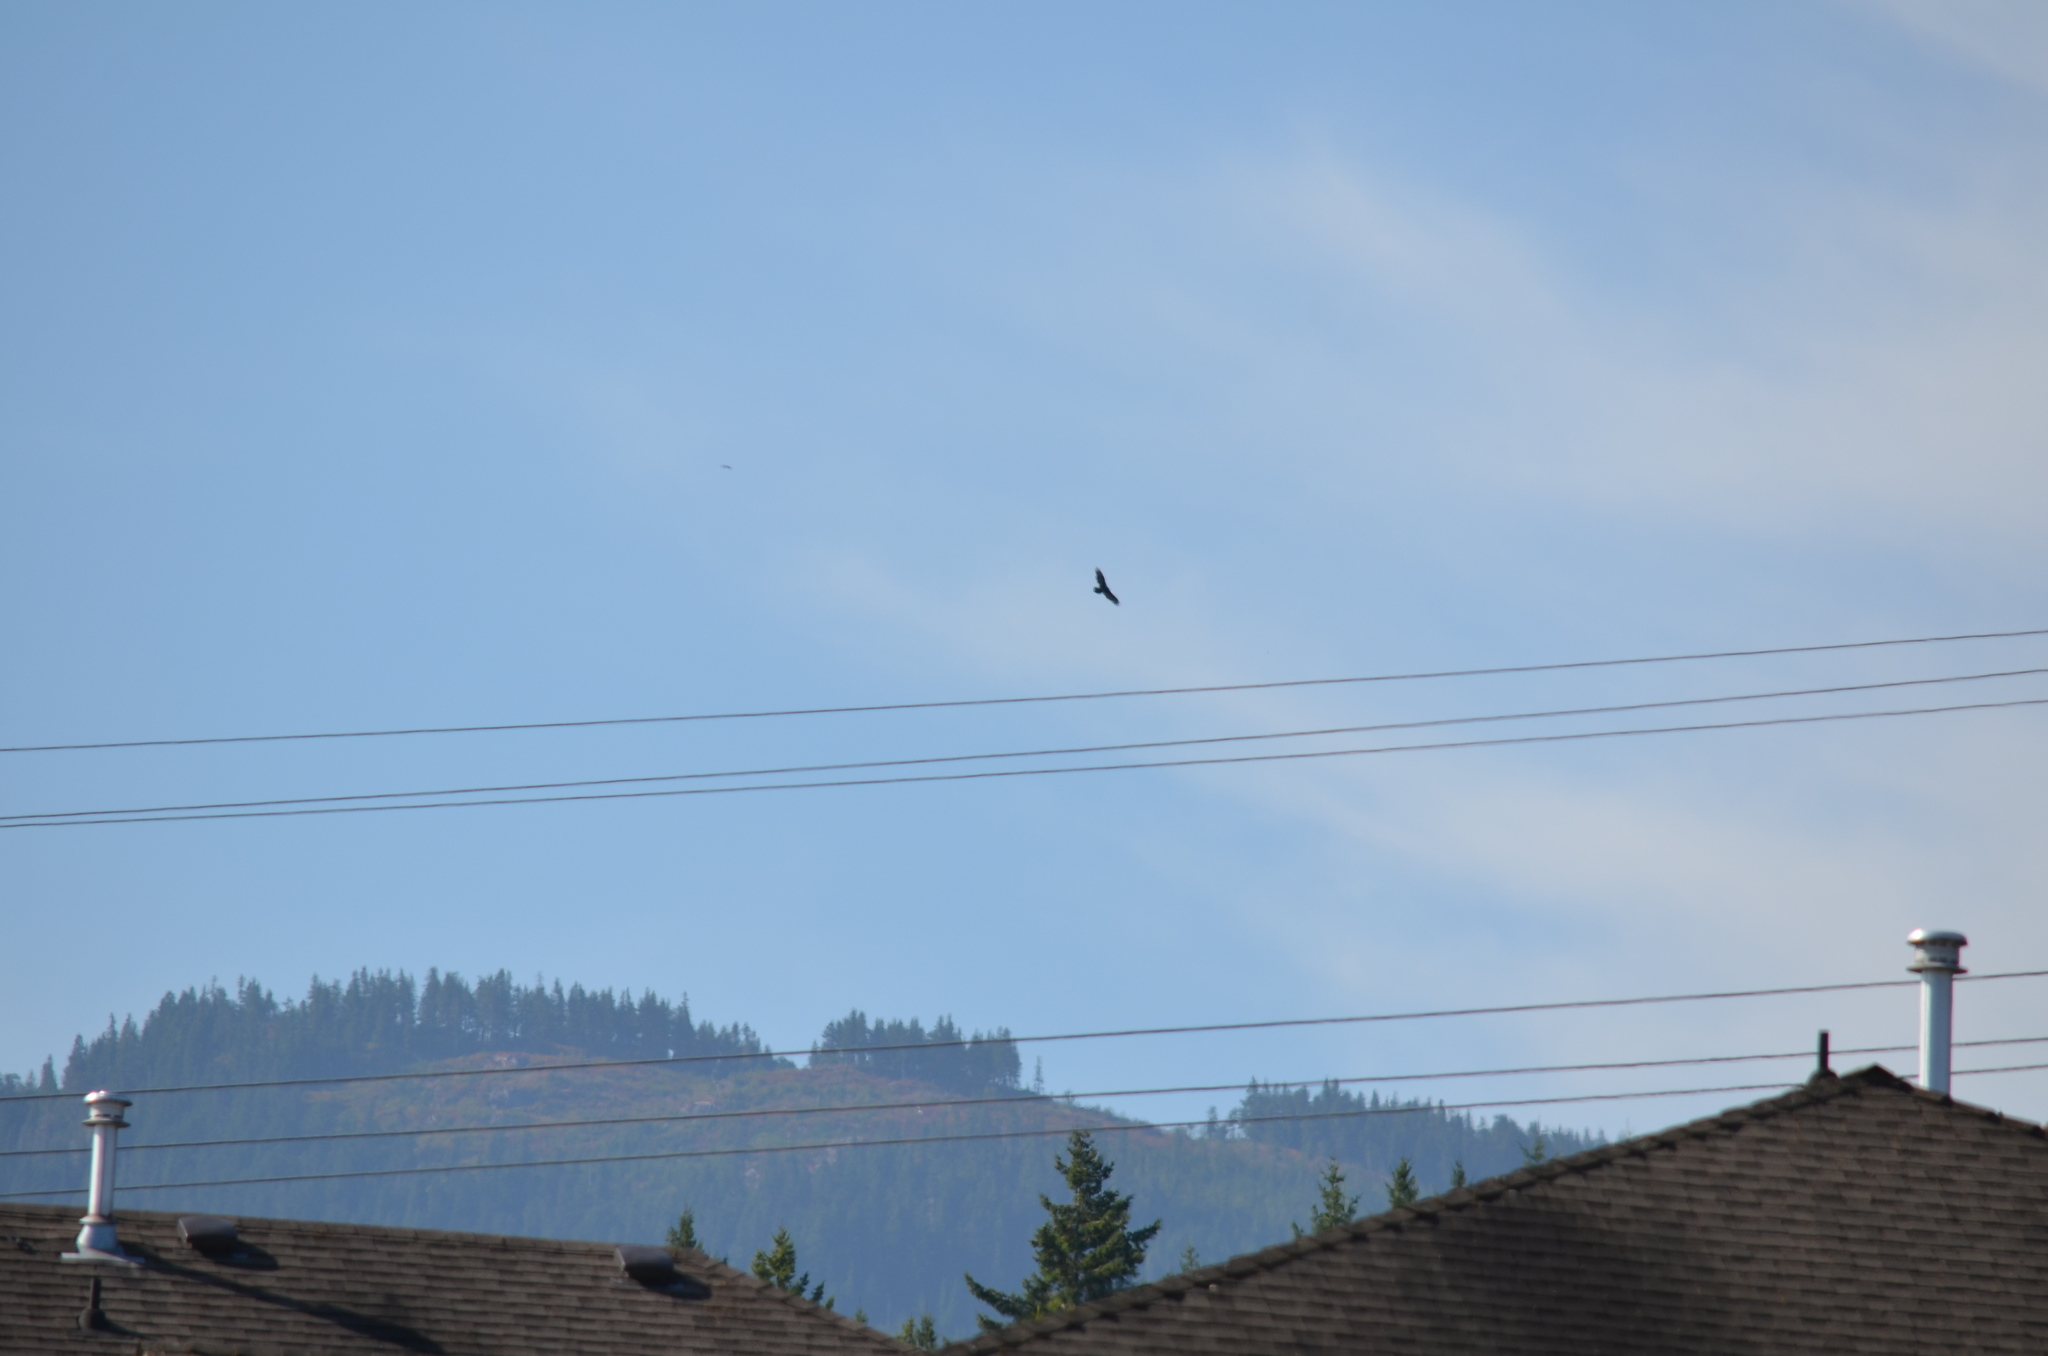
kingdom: Animalia
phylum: Chordata
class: Aves
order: Accipitriformes
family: Cathartidae
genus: Cathartes
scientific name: Cathartes aura
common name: Turkey vulture
